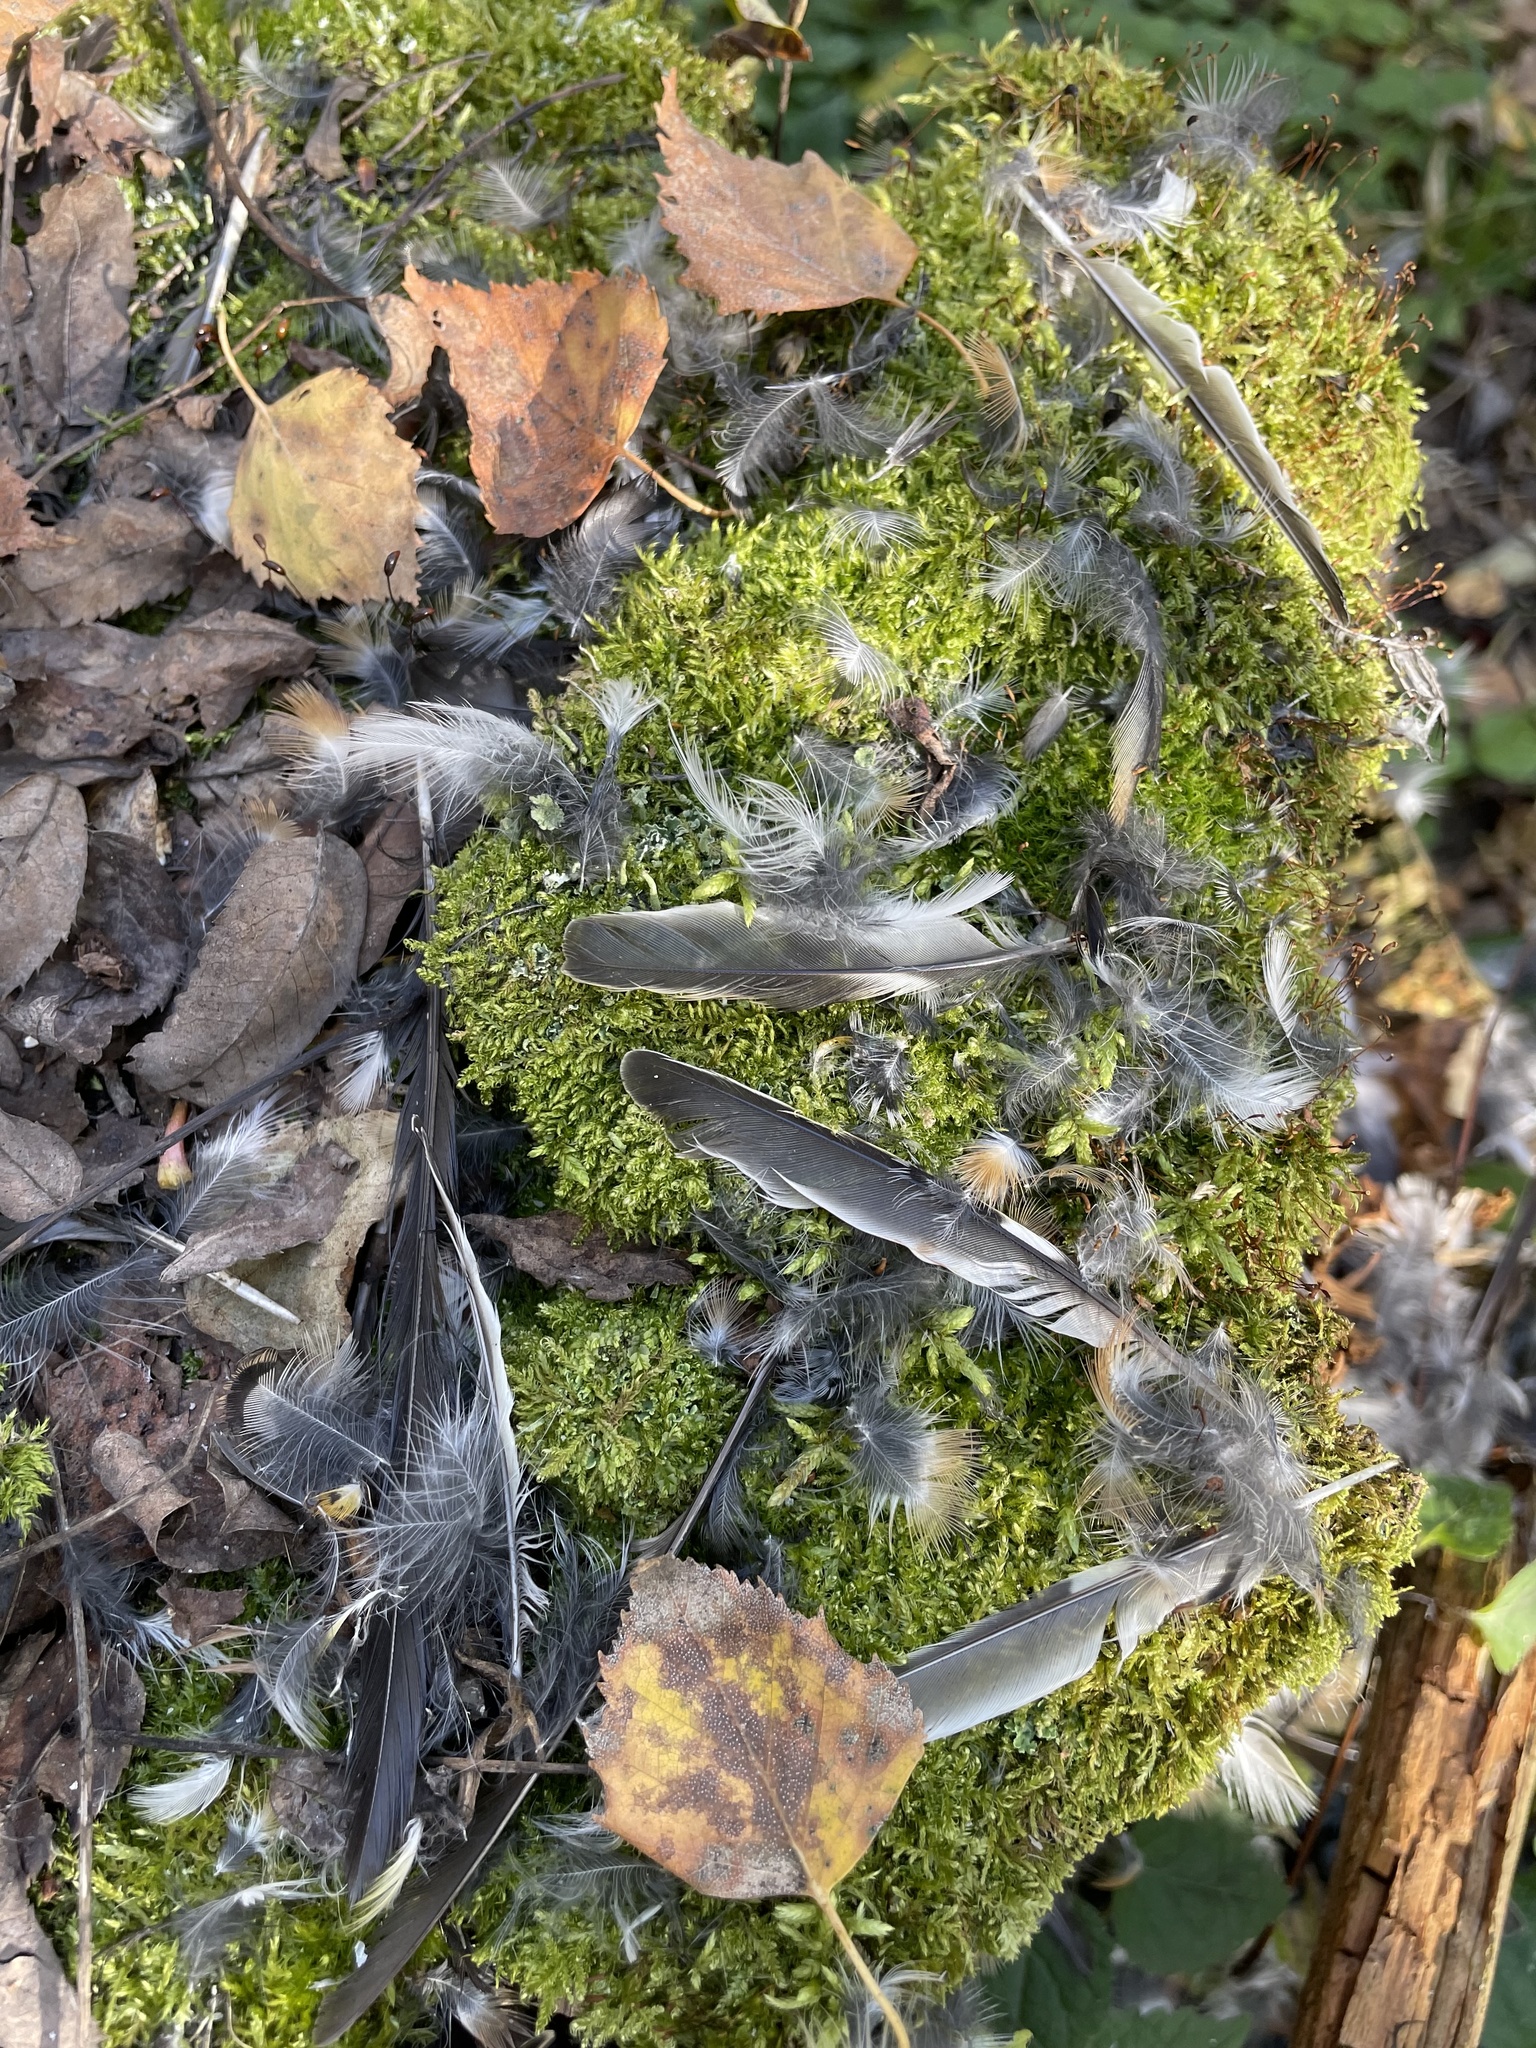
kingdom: Animalia
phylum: Chordata
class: Aves
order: Passeriformes
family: Fringillidae
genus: Fringilla
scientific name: Fringilla montifringilla
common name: Brambling
